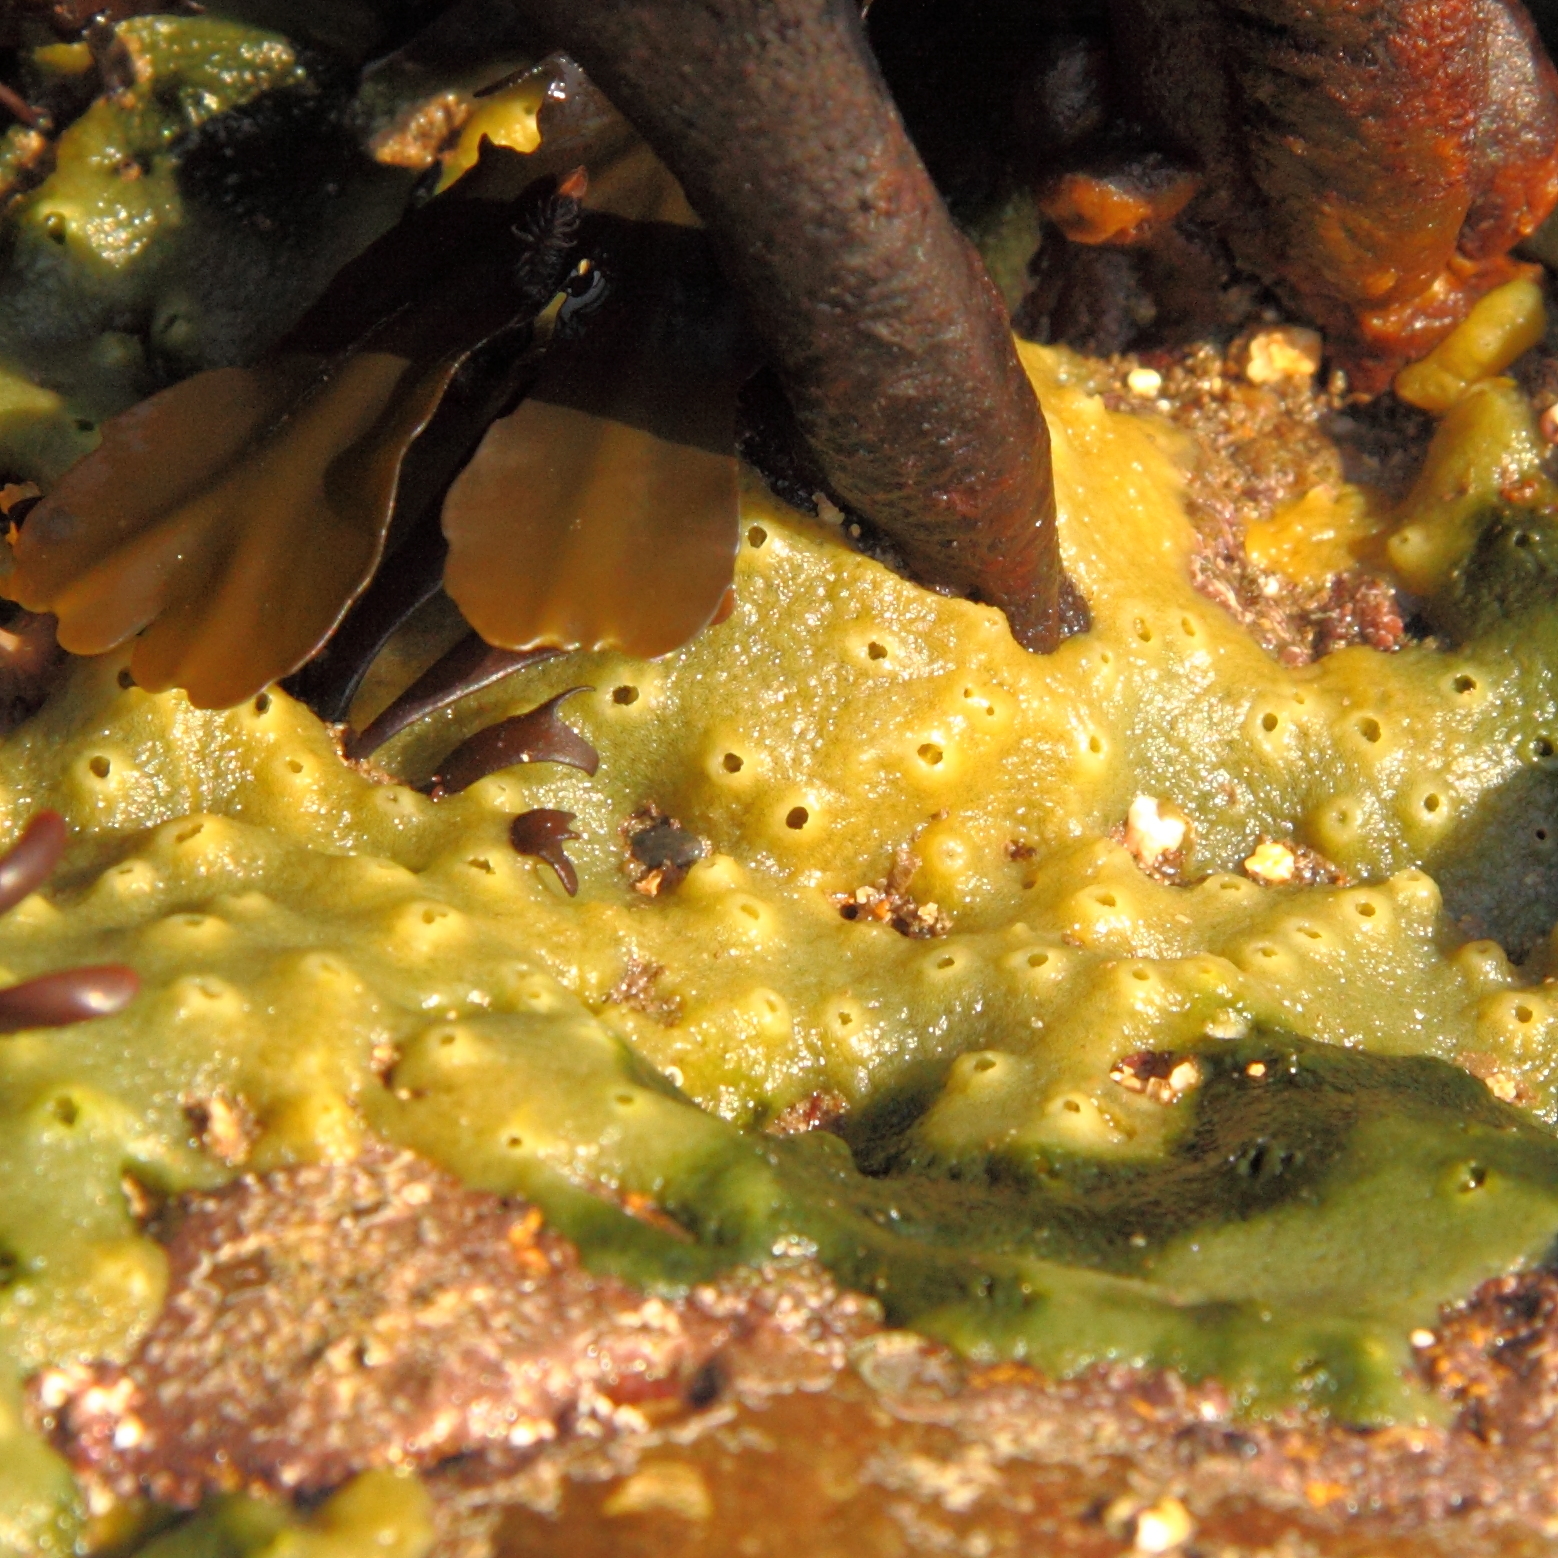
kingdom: Animalia
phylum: Porifera
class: Demospongiae
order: Suberitida
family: Halichondriidae
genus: Halichondria
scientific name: Halichondria panicea
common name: Breadcrumb sponge
